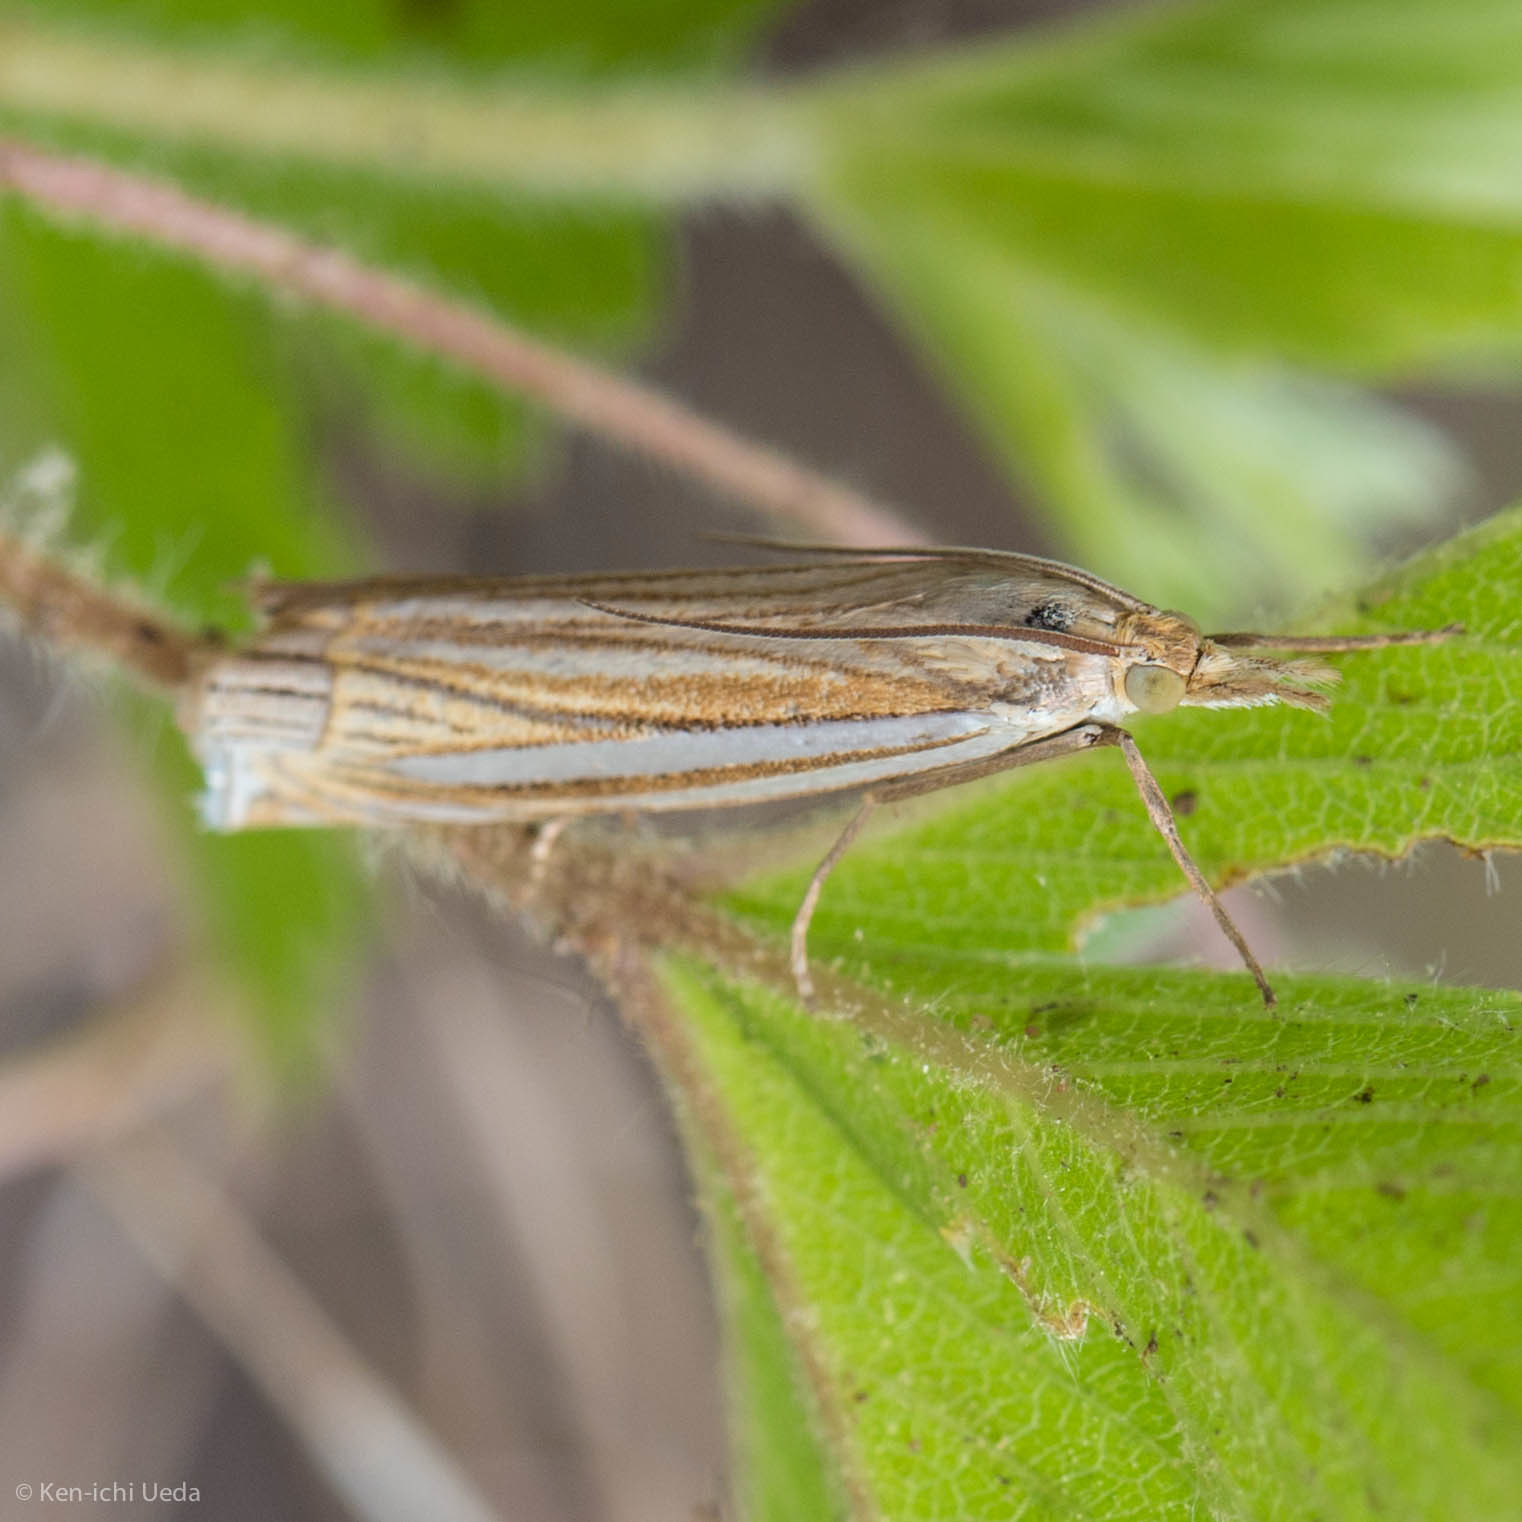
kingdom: Animalia
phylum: Arthropoda
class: Insecta
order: Lepidoptera
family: Crambidae
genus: Crambus
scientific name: Crambus laqueatellus
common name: Eastern grass-veneer
